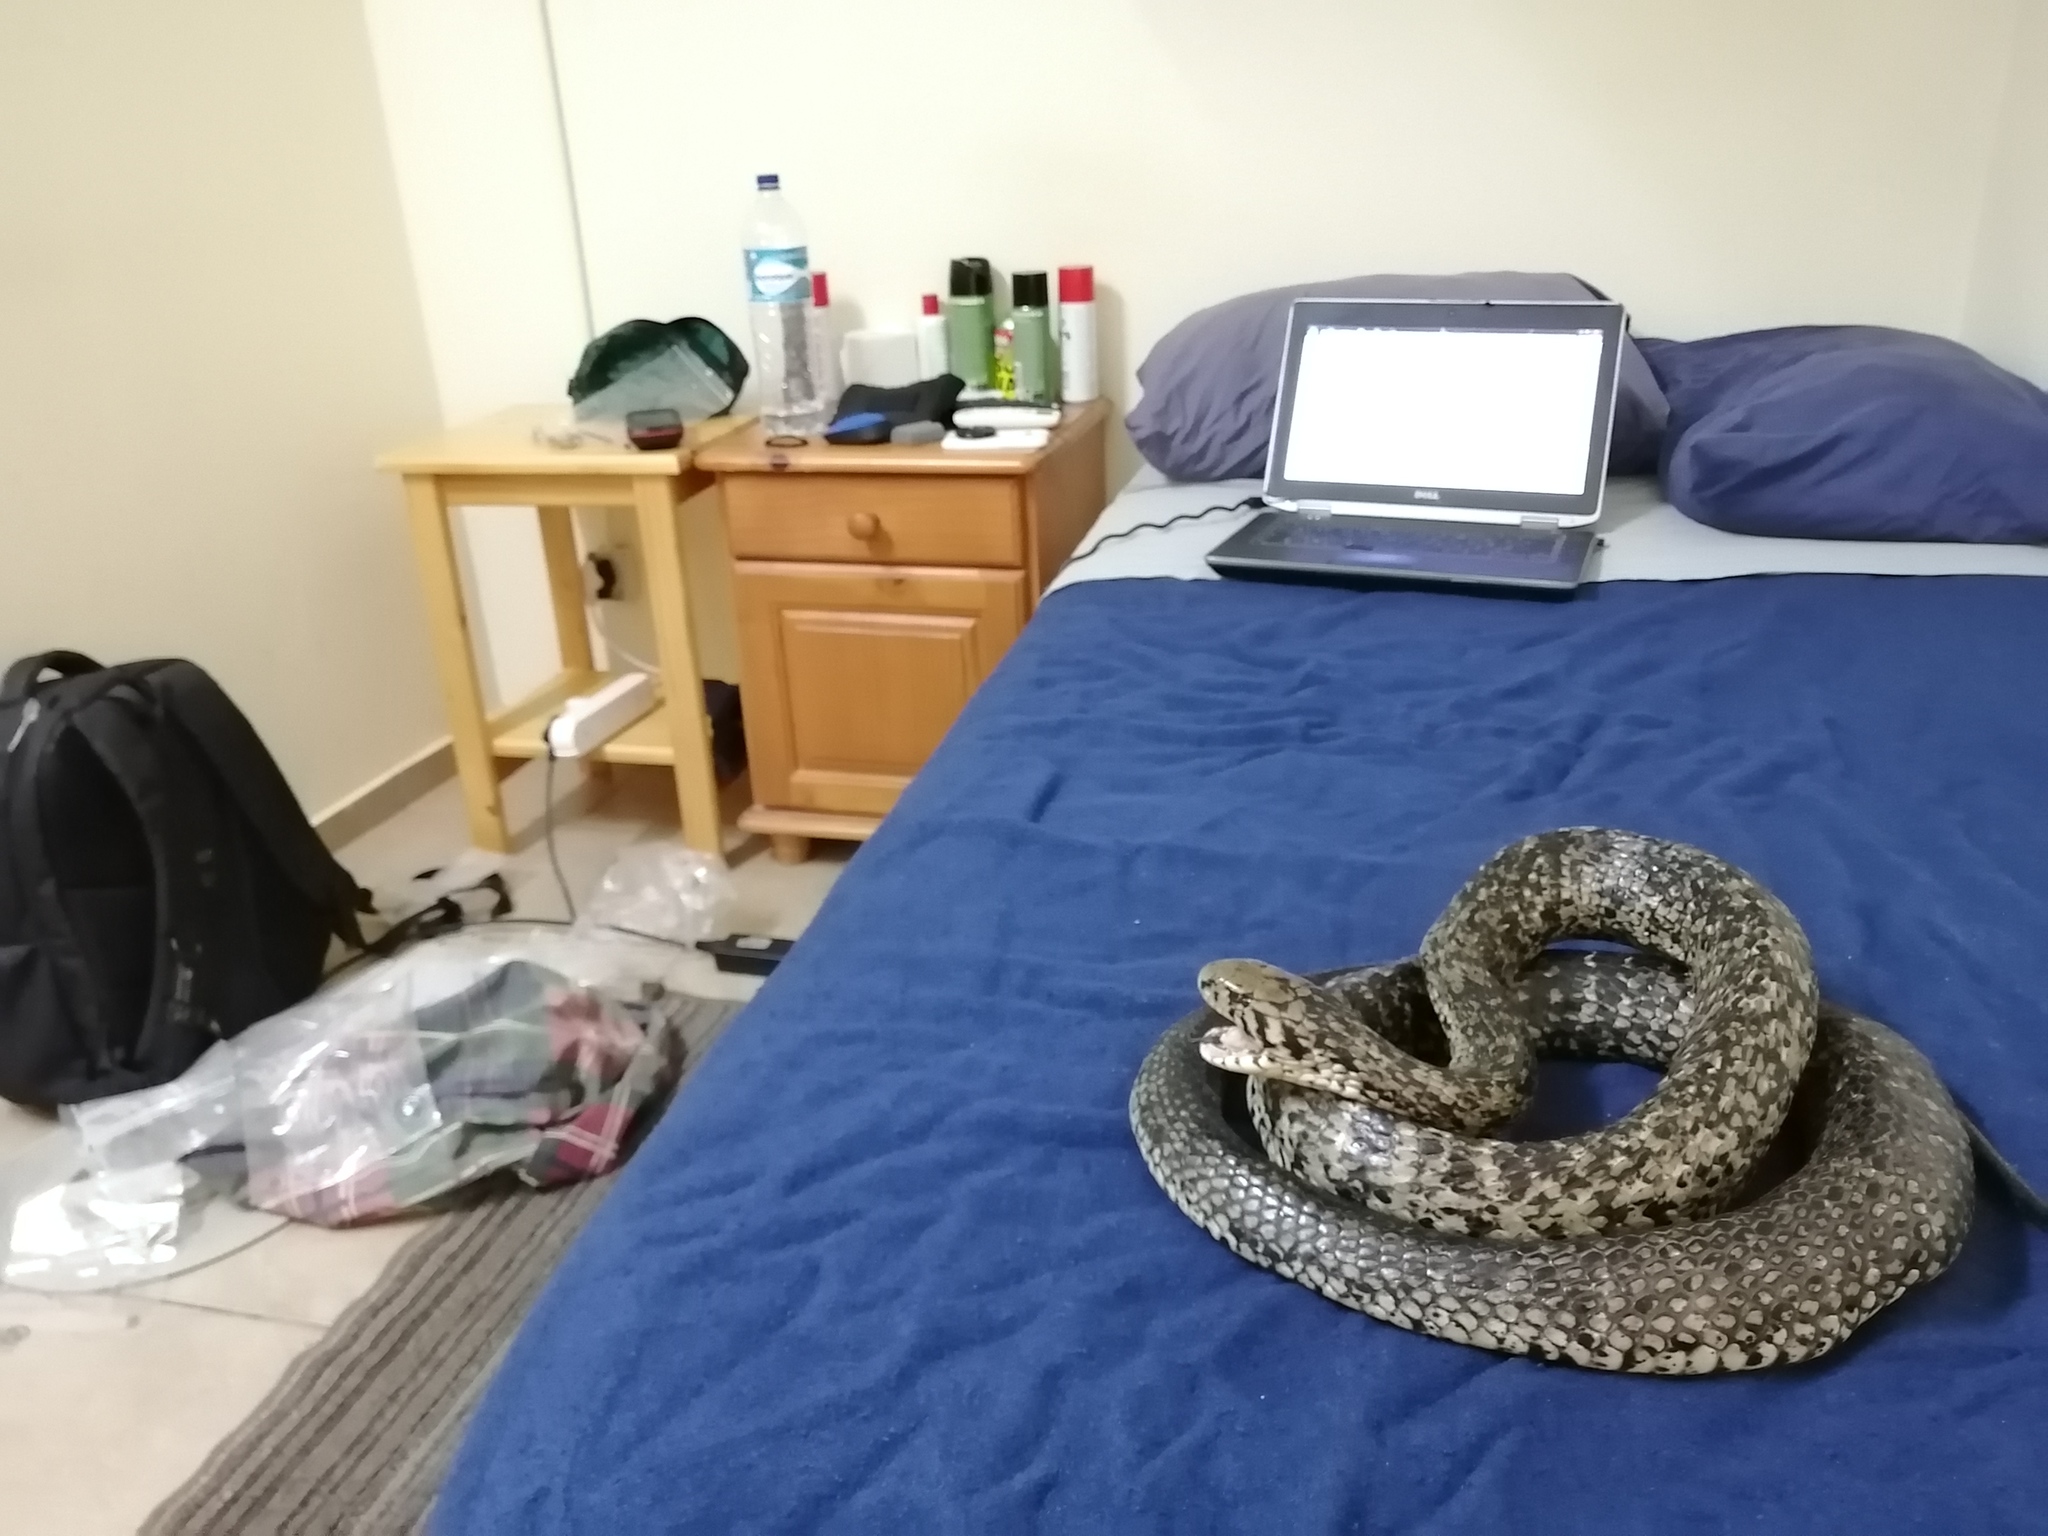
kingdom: Animalia
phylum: Chordata
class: Squamata
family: Elapidae
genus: Naja
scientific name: Naja subfulva
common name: Brown forest cobra
